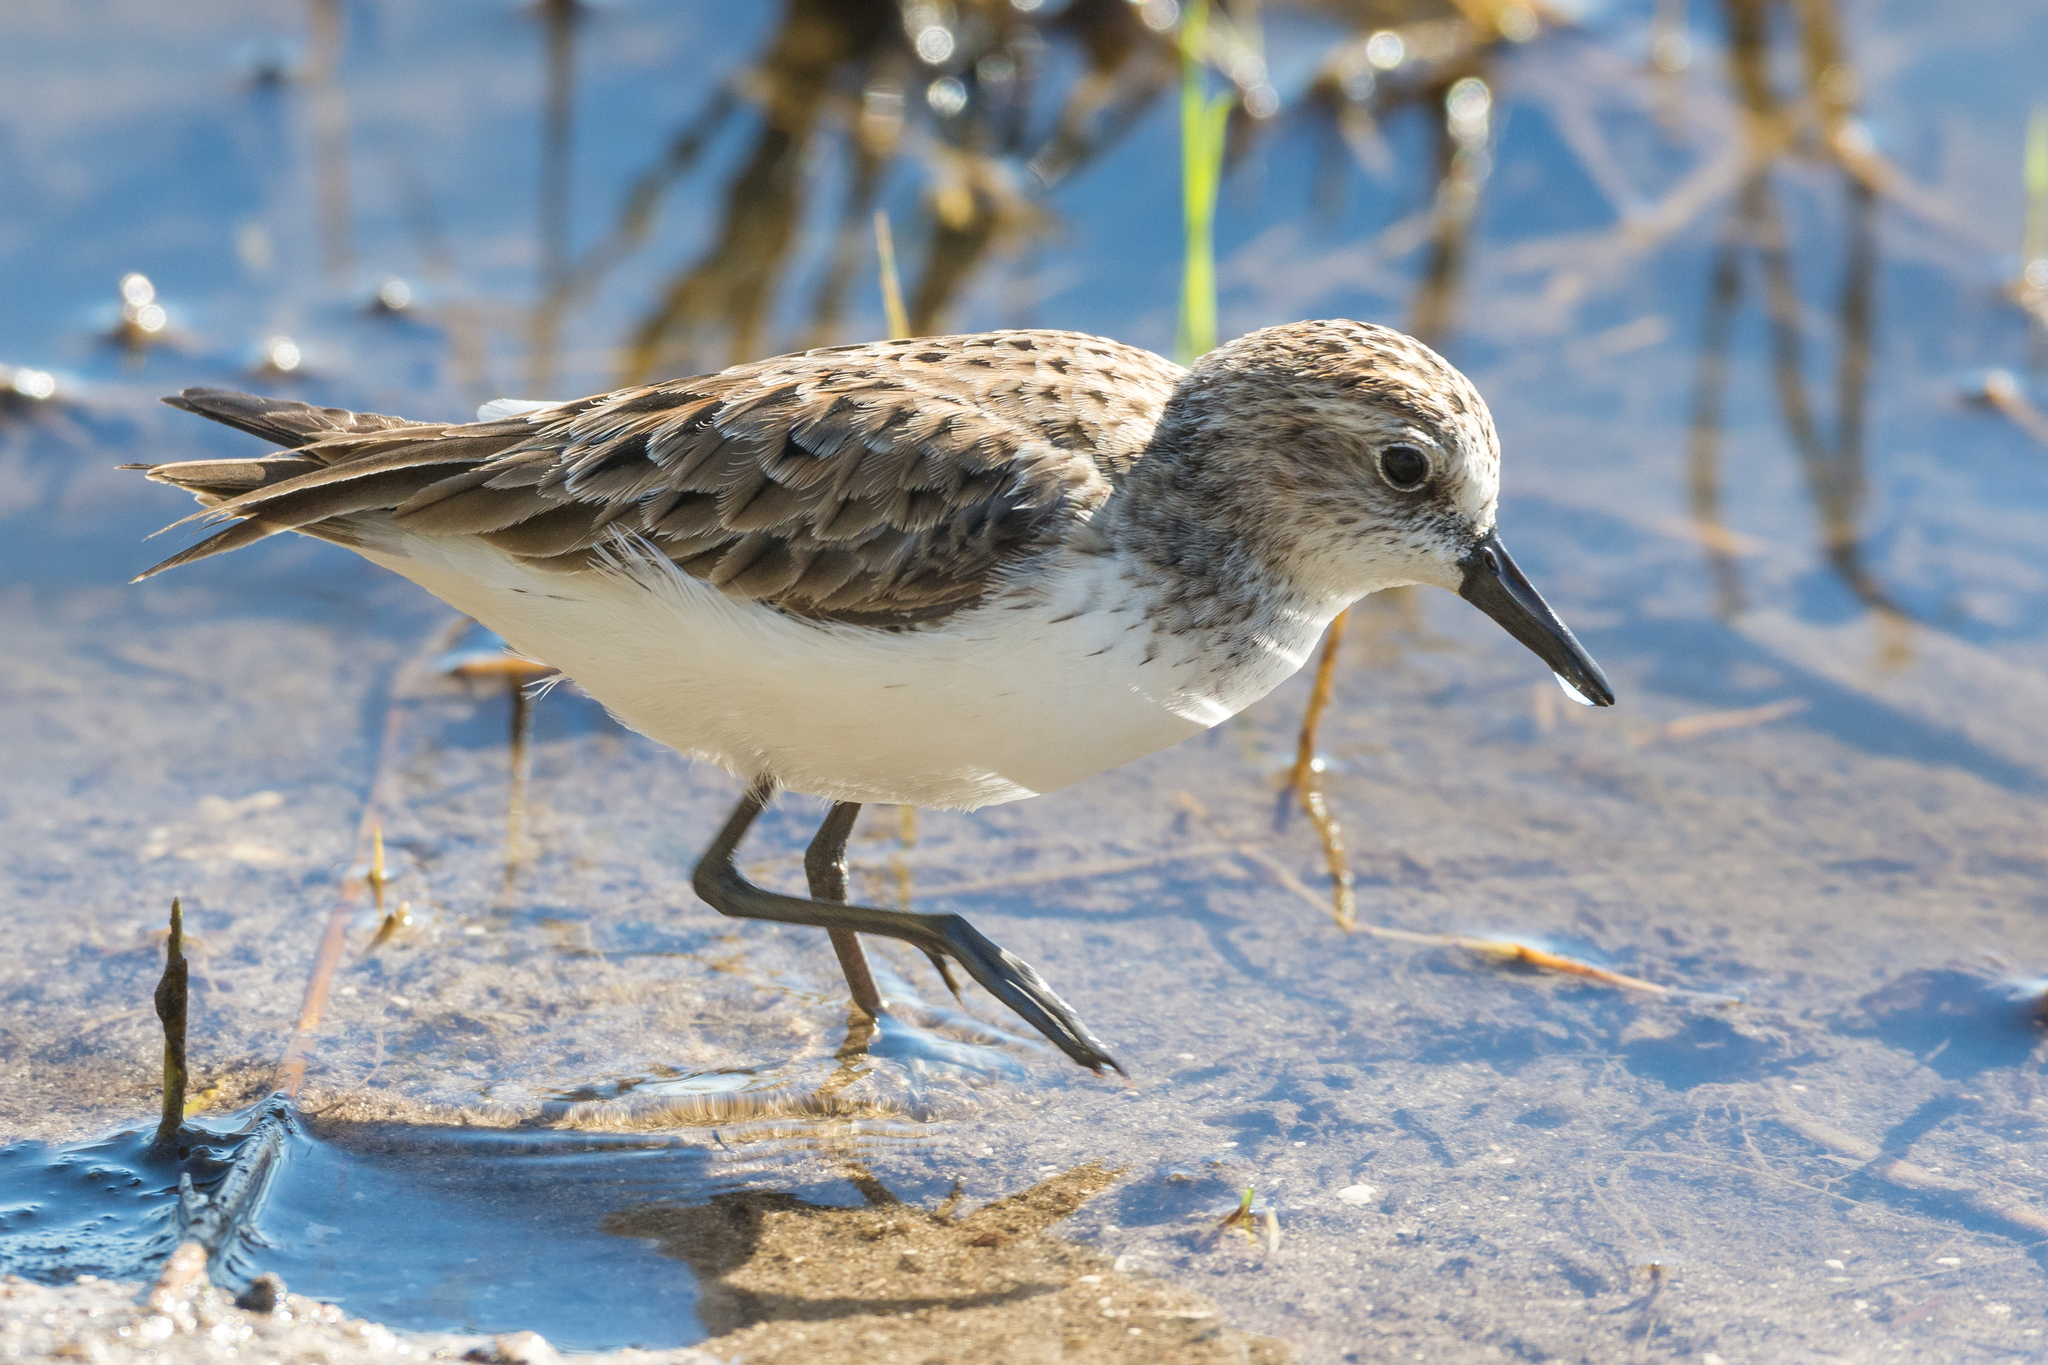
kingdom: Animalia
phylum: Chordata
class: Aves
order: Charadriiformes
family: Scolopacidae
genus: Calidris
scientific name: Calidris pusilla
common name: Semipalmated sandpiper
